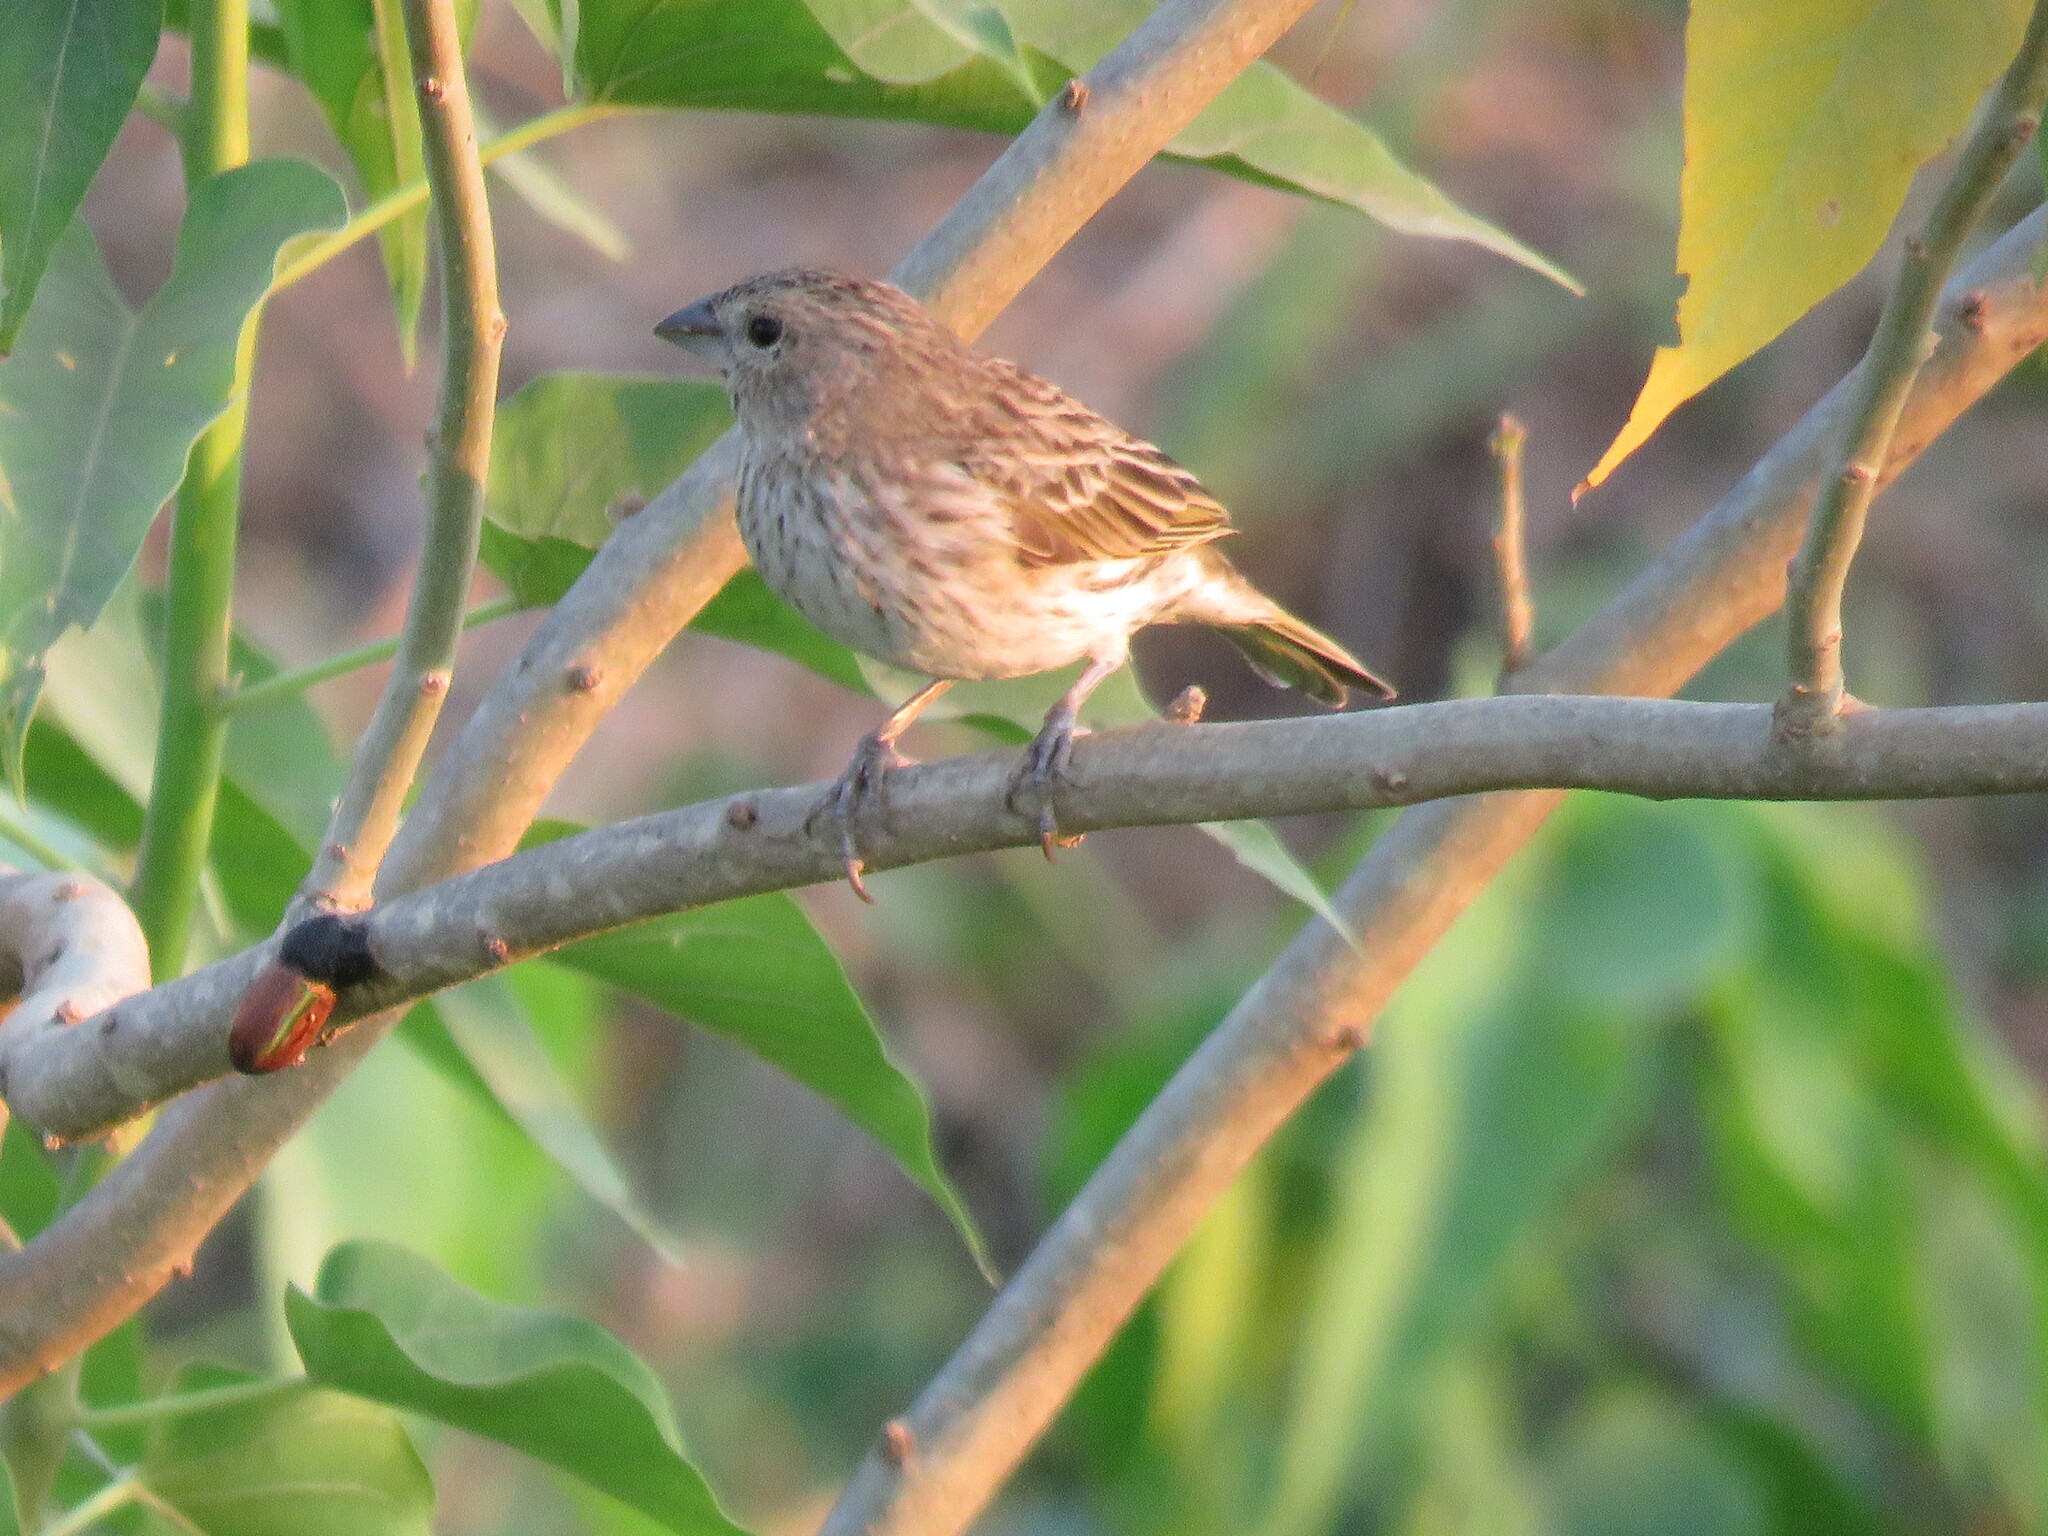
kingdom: Animalia
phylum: Chordata
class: Aves
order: Passeriformes
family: Thraupidae
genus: Sicalis
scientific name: Sicalis flaveola
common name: Saffron finch
